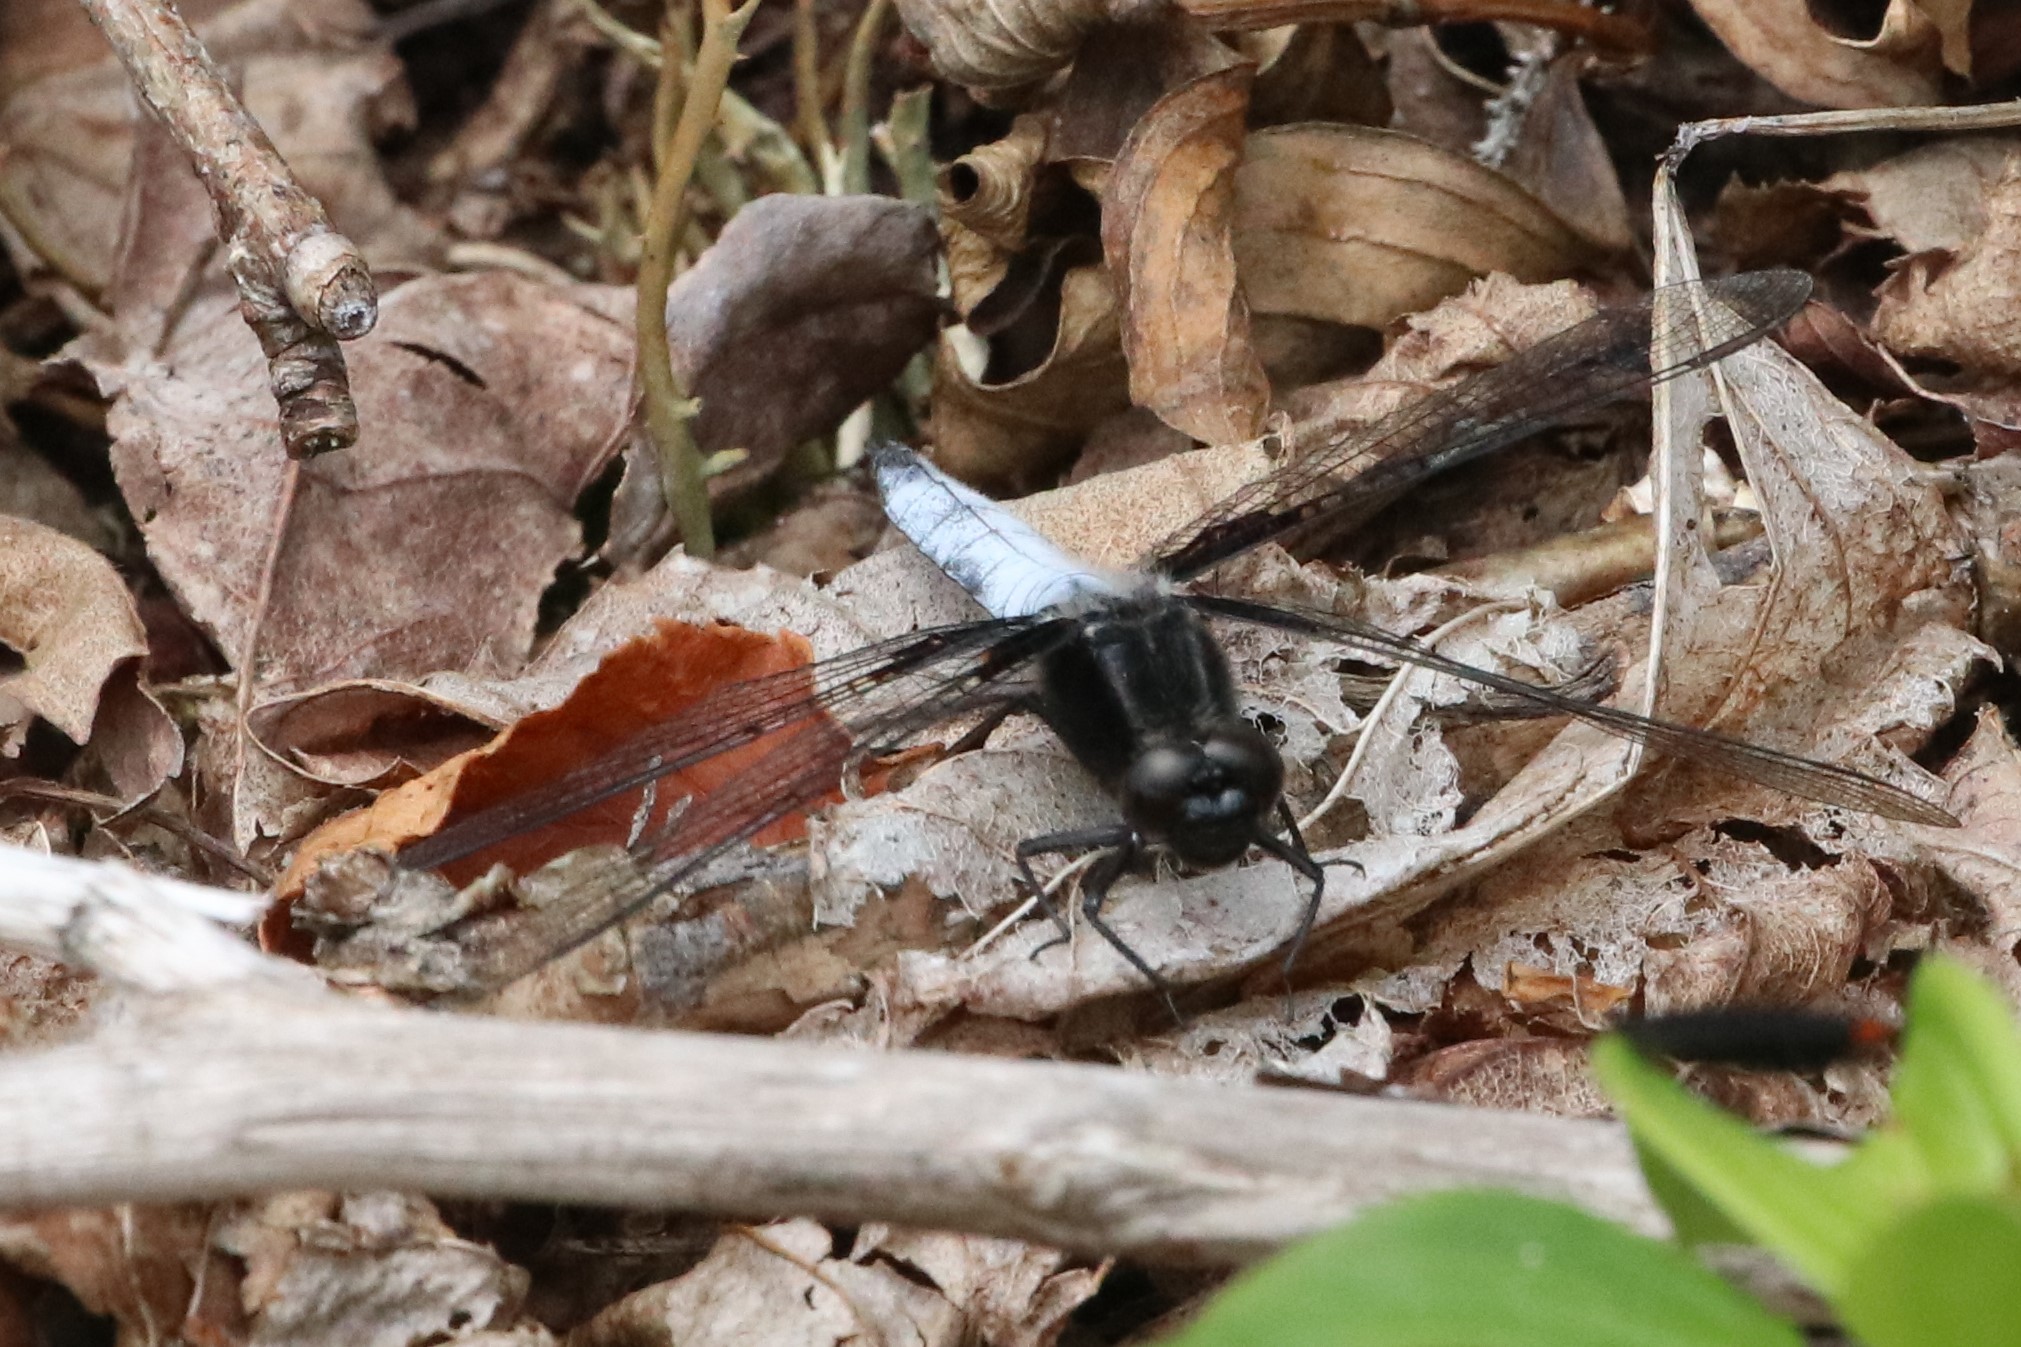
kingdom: Animalia
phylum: Arthropoda
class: Insecta
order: Odonata
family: Libellulidae
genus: Ladona
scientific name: Ladona exusta
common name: Libellule embrasée
